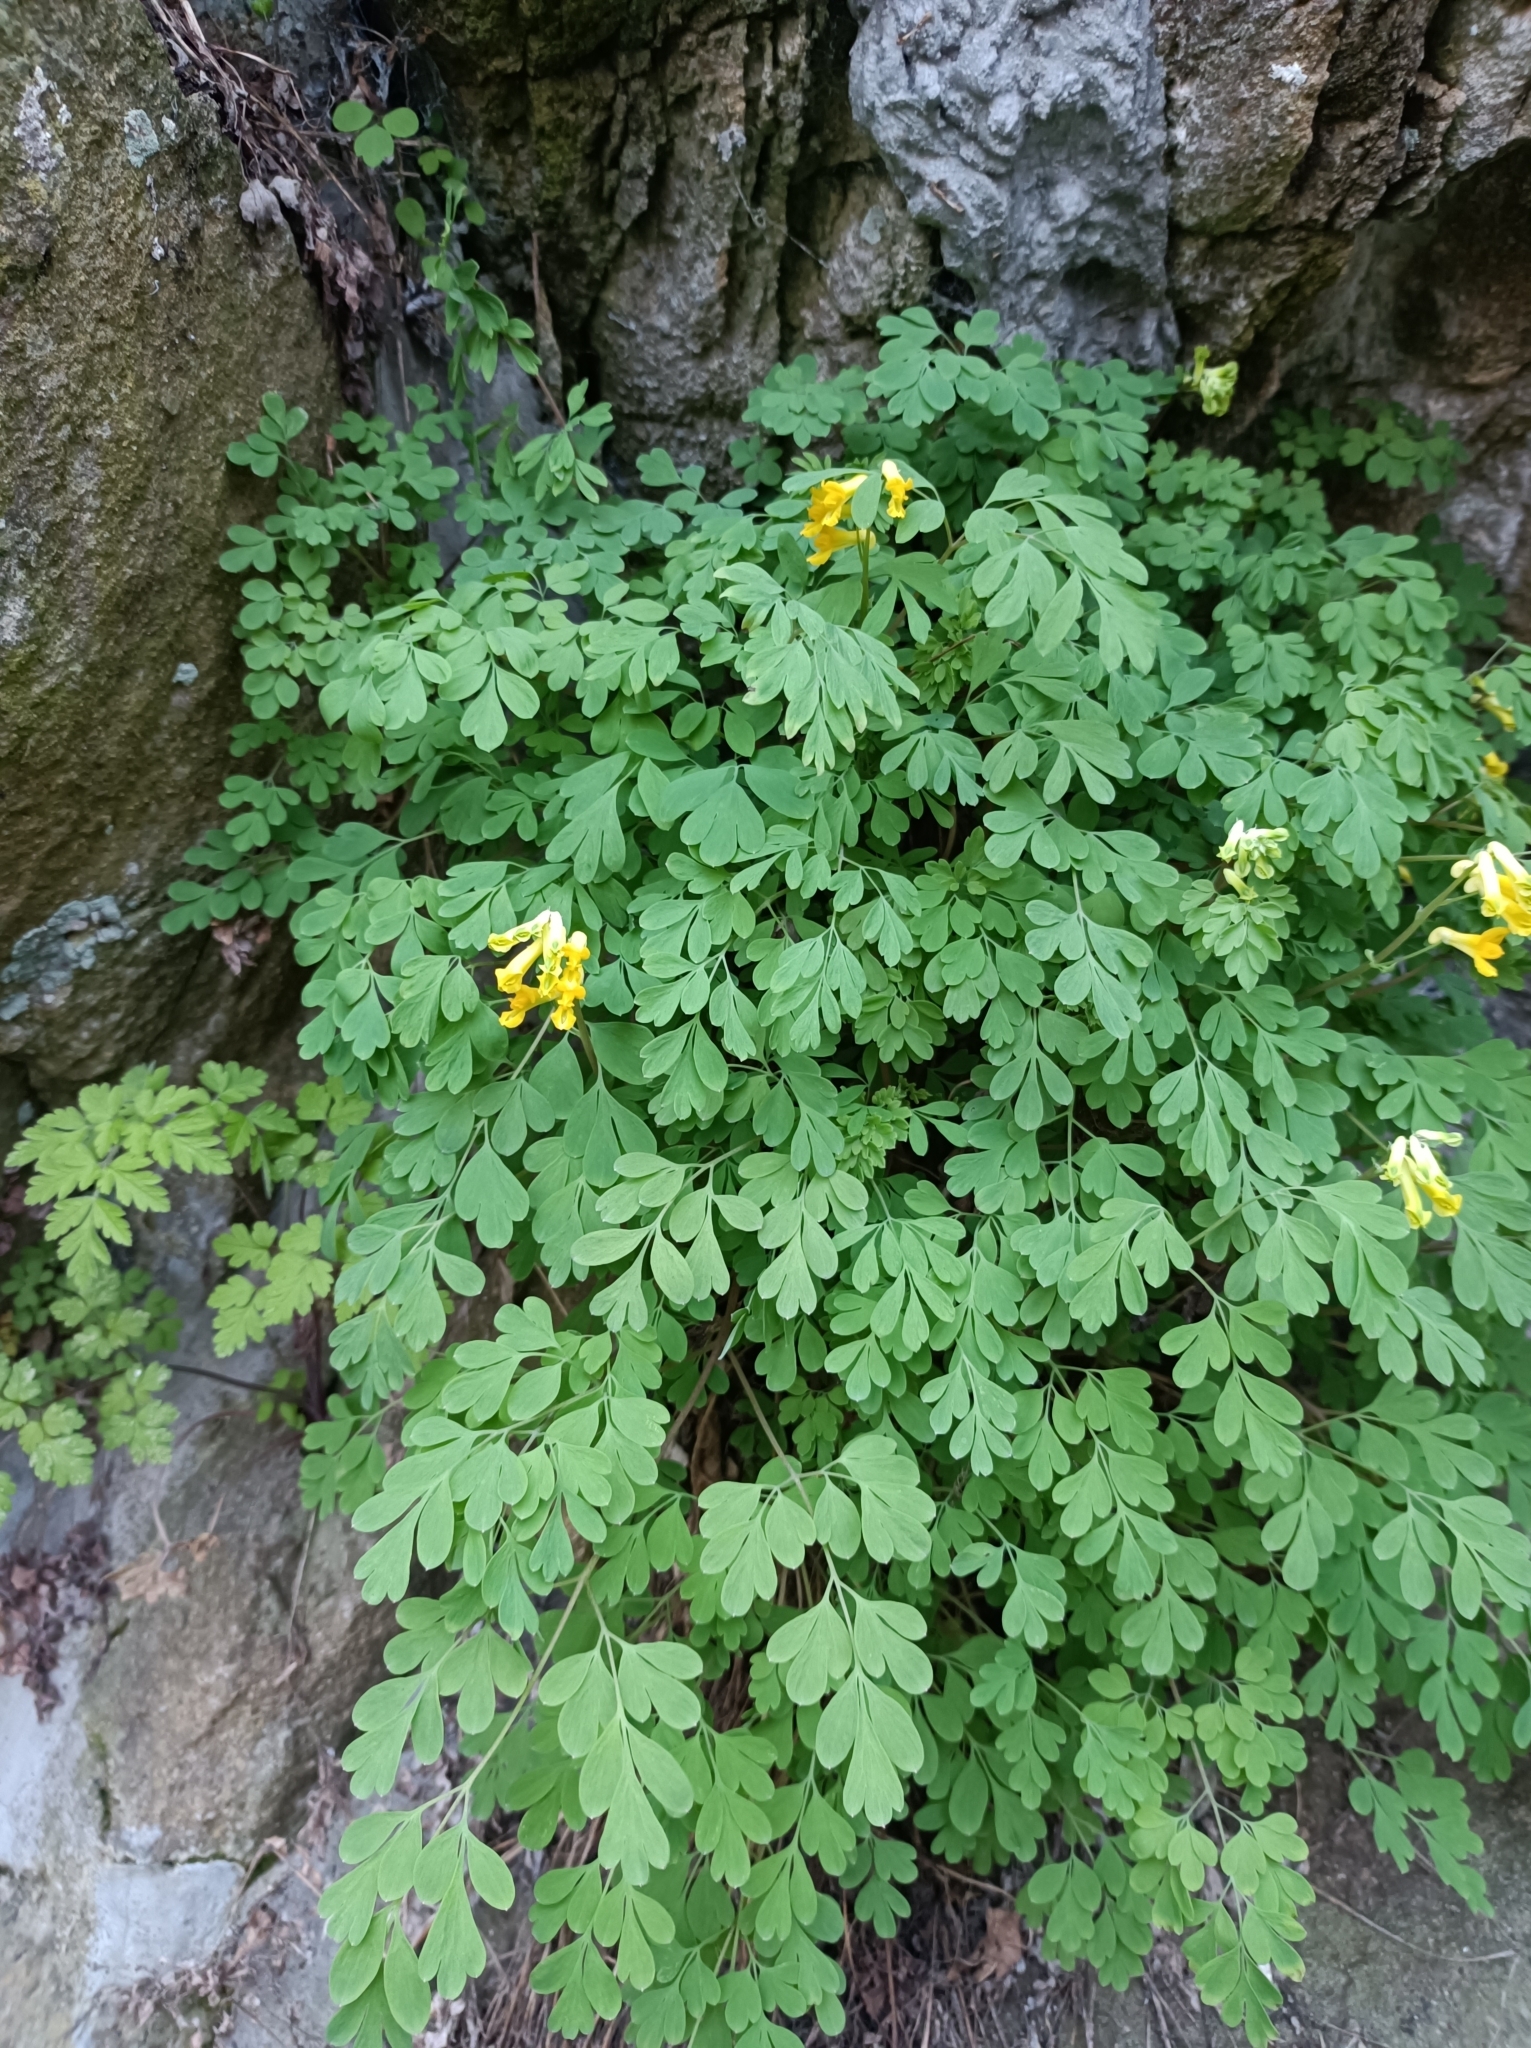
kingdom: Plantae
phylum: Tracheophyta
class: Magnoliopsida
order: Ranunculales
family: Papaveraceae
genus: Pseudofumaria
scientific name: Pseudofumaria lutea
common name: Yellow corydalis
